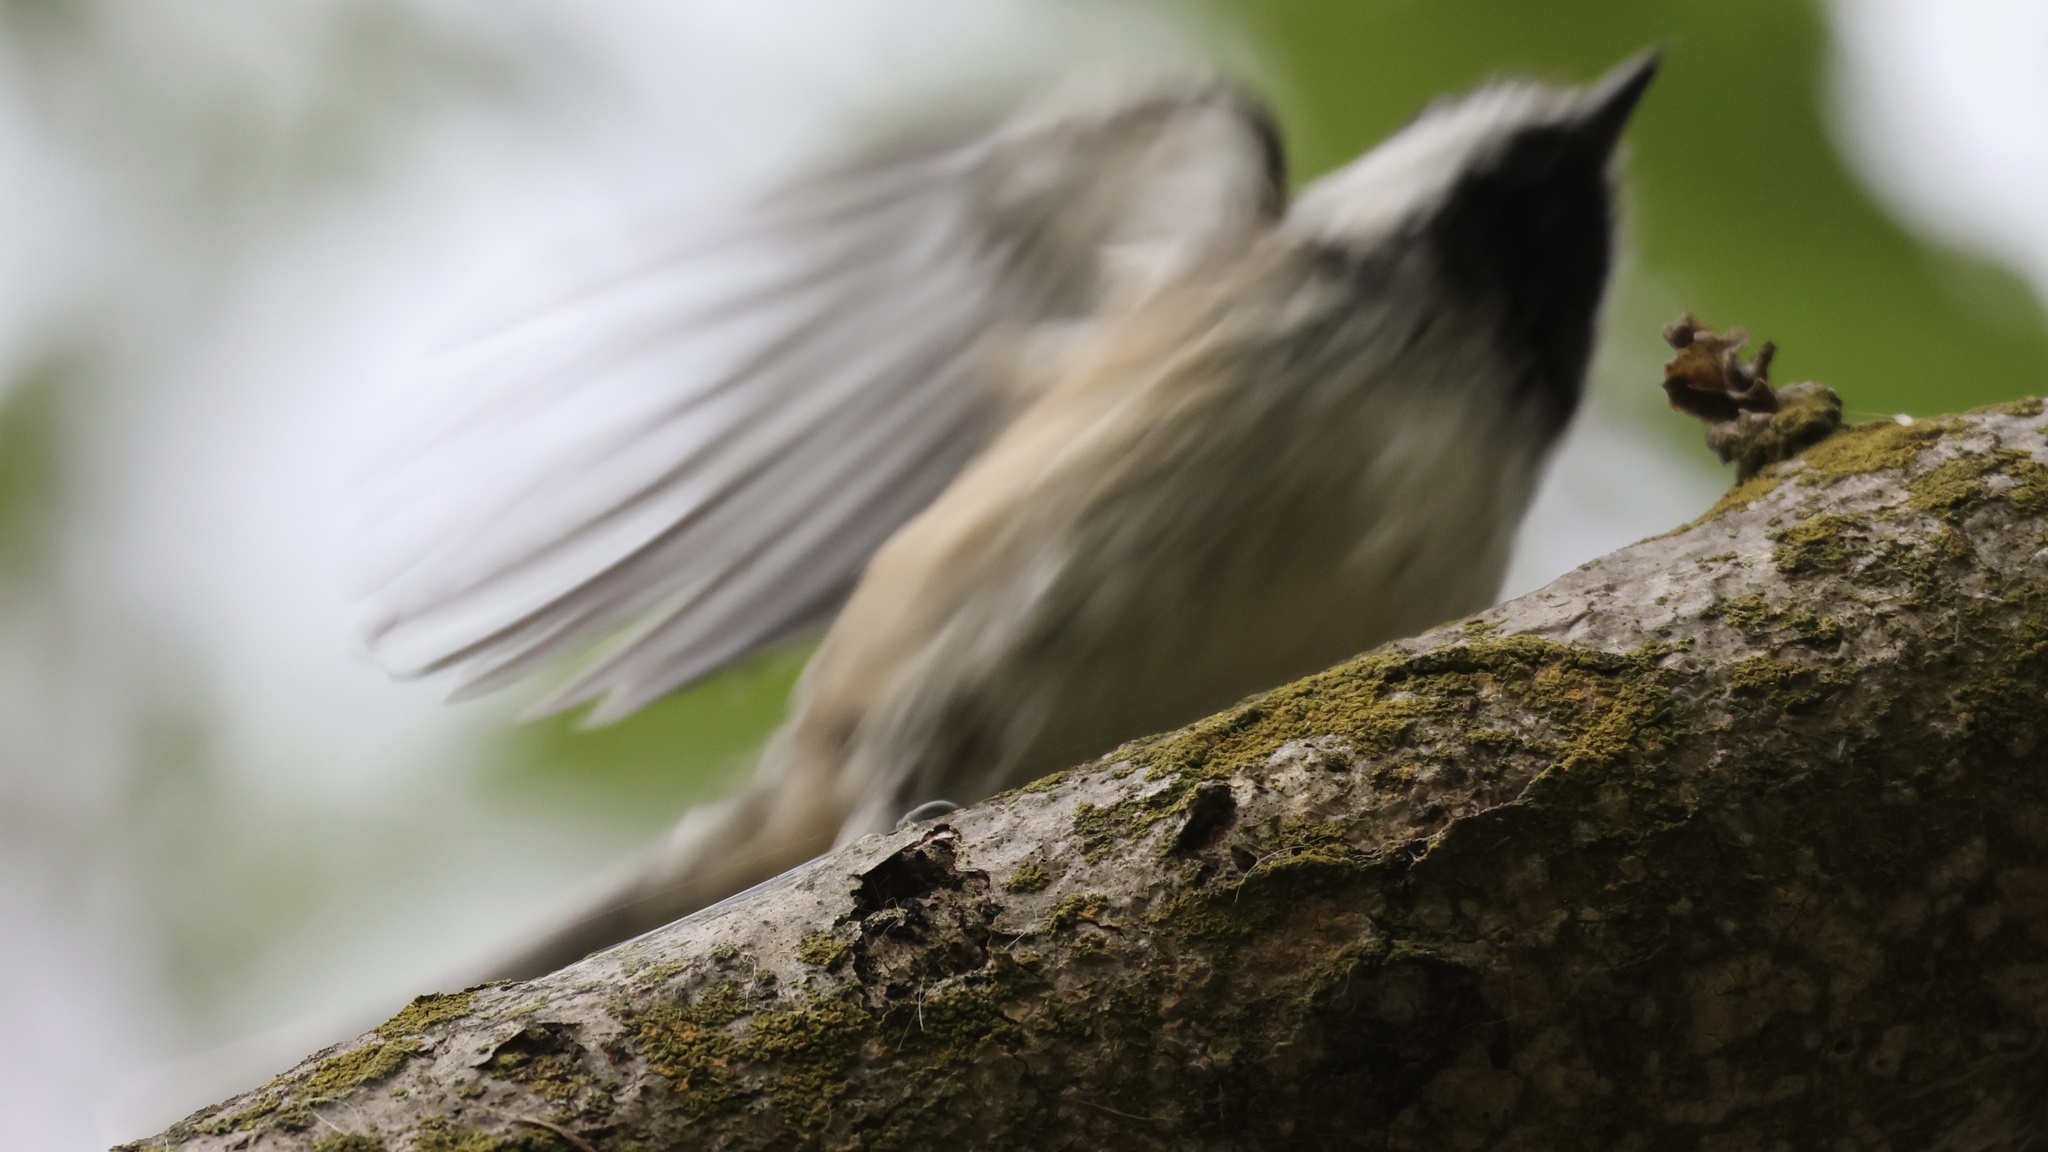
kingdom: Animalia
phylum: Chordata
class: Aves
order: Passeriformes
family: Paridae
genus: Poecile
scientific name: Poecile atricapillus
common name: Black-capped chickadee
